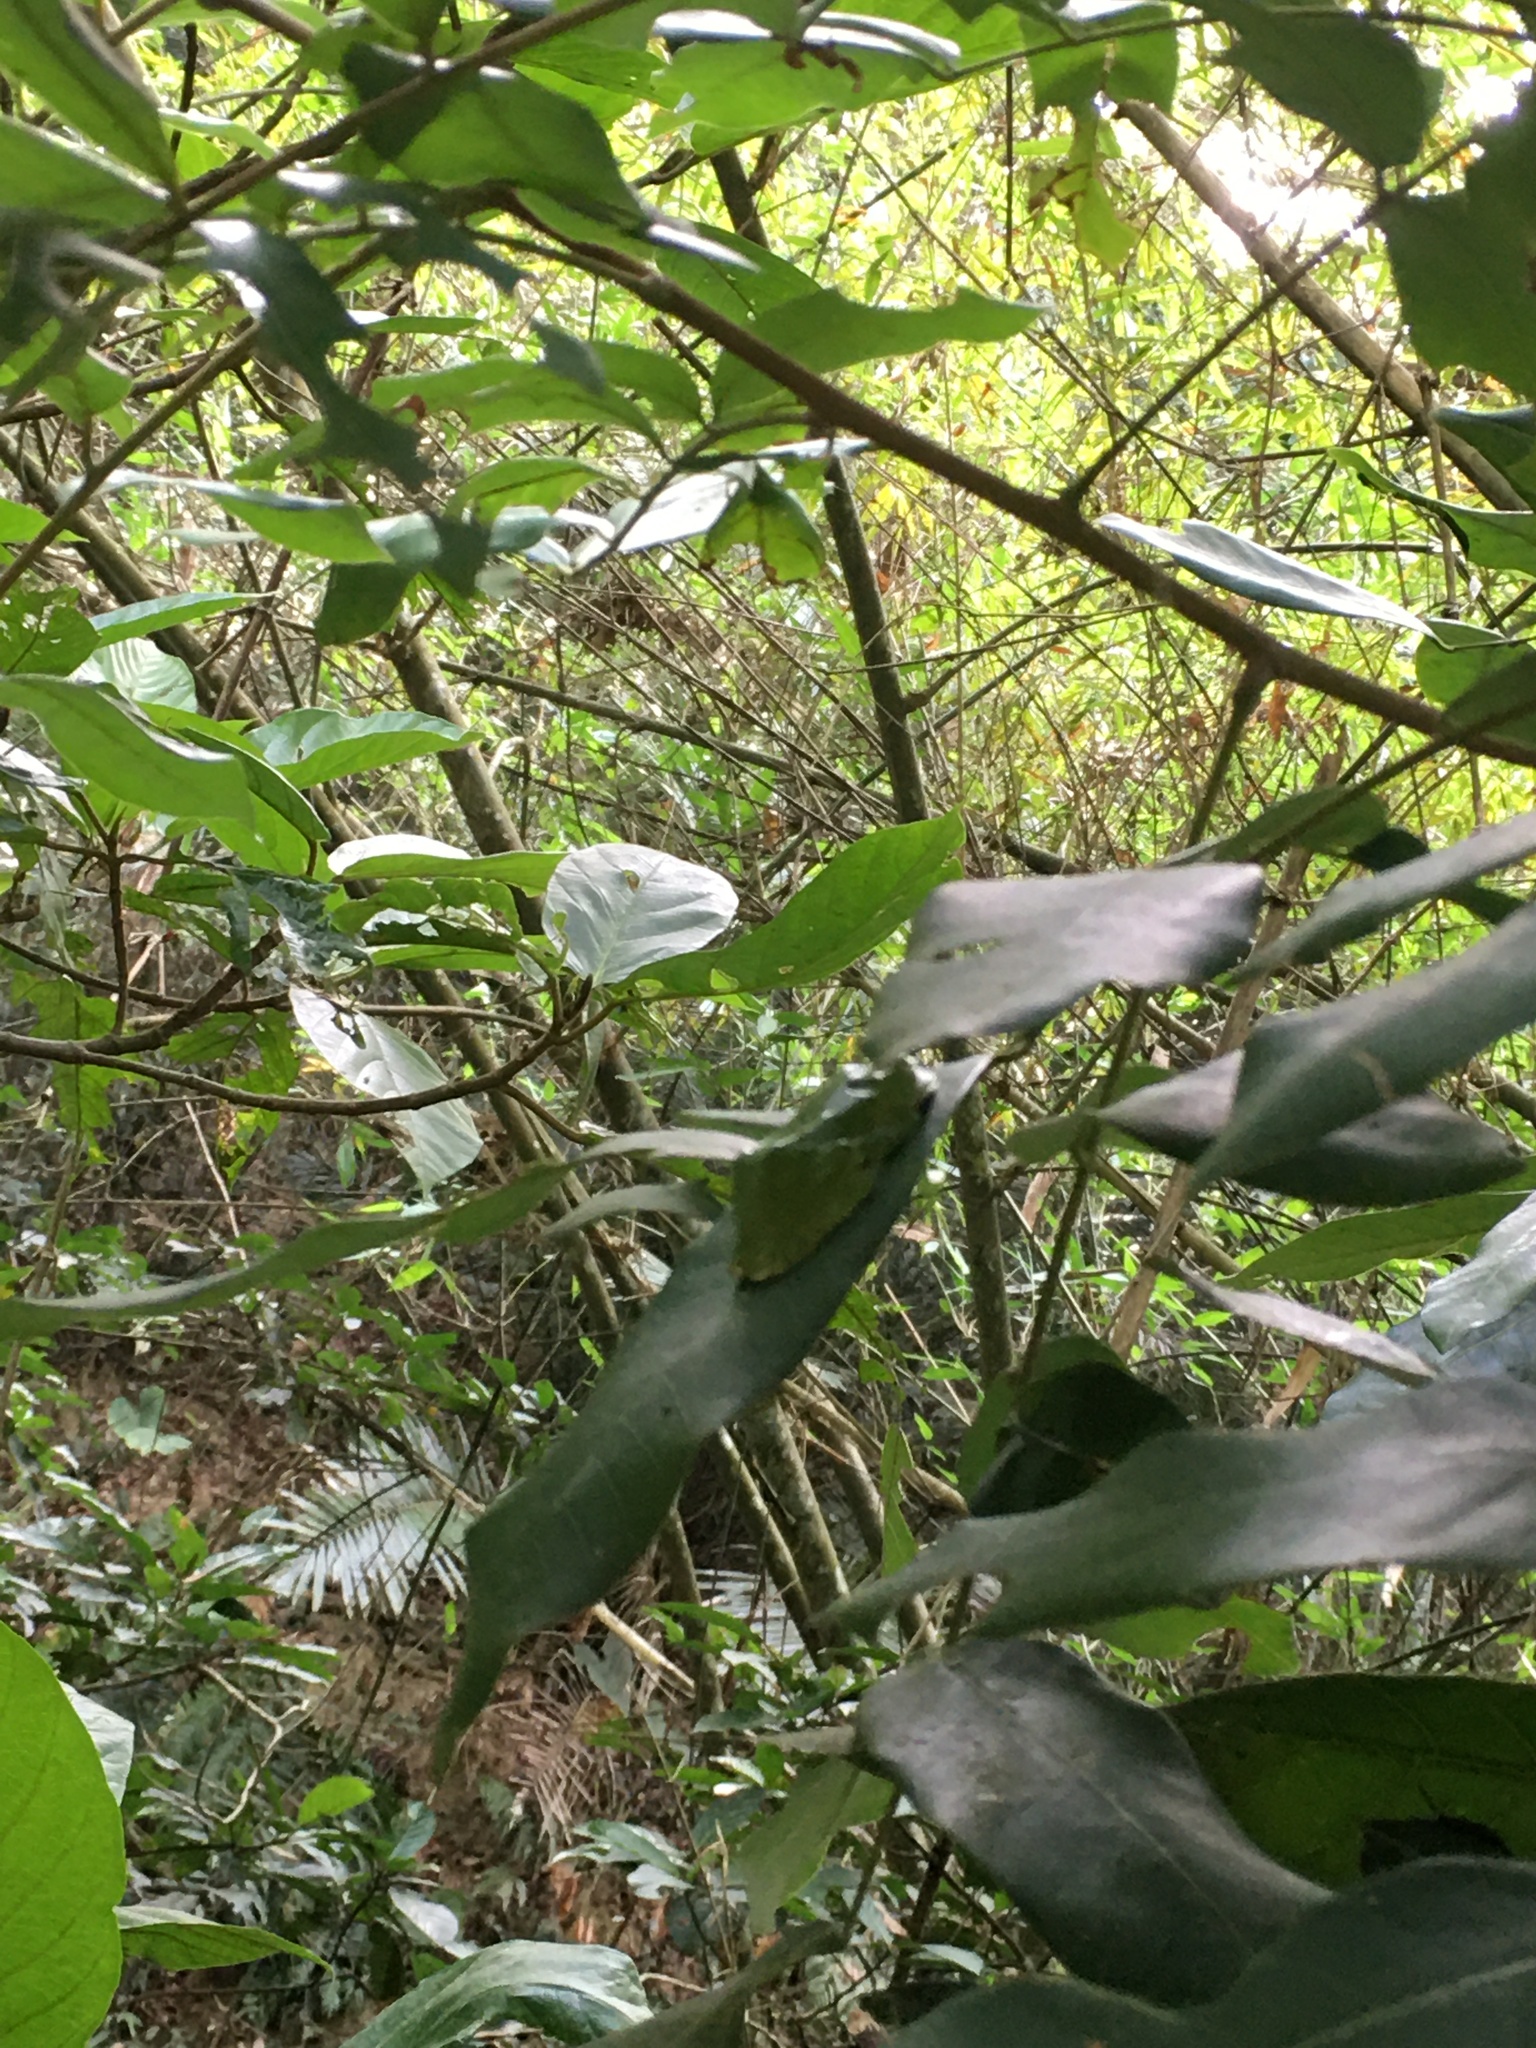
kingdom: Animalia
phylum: Chordata
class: Amphibia
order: Anura
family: Rhacophoridae
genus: Zhangixalus
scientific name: Zhangixalus moltrechti
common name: Moltrecht's treefrog
